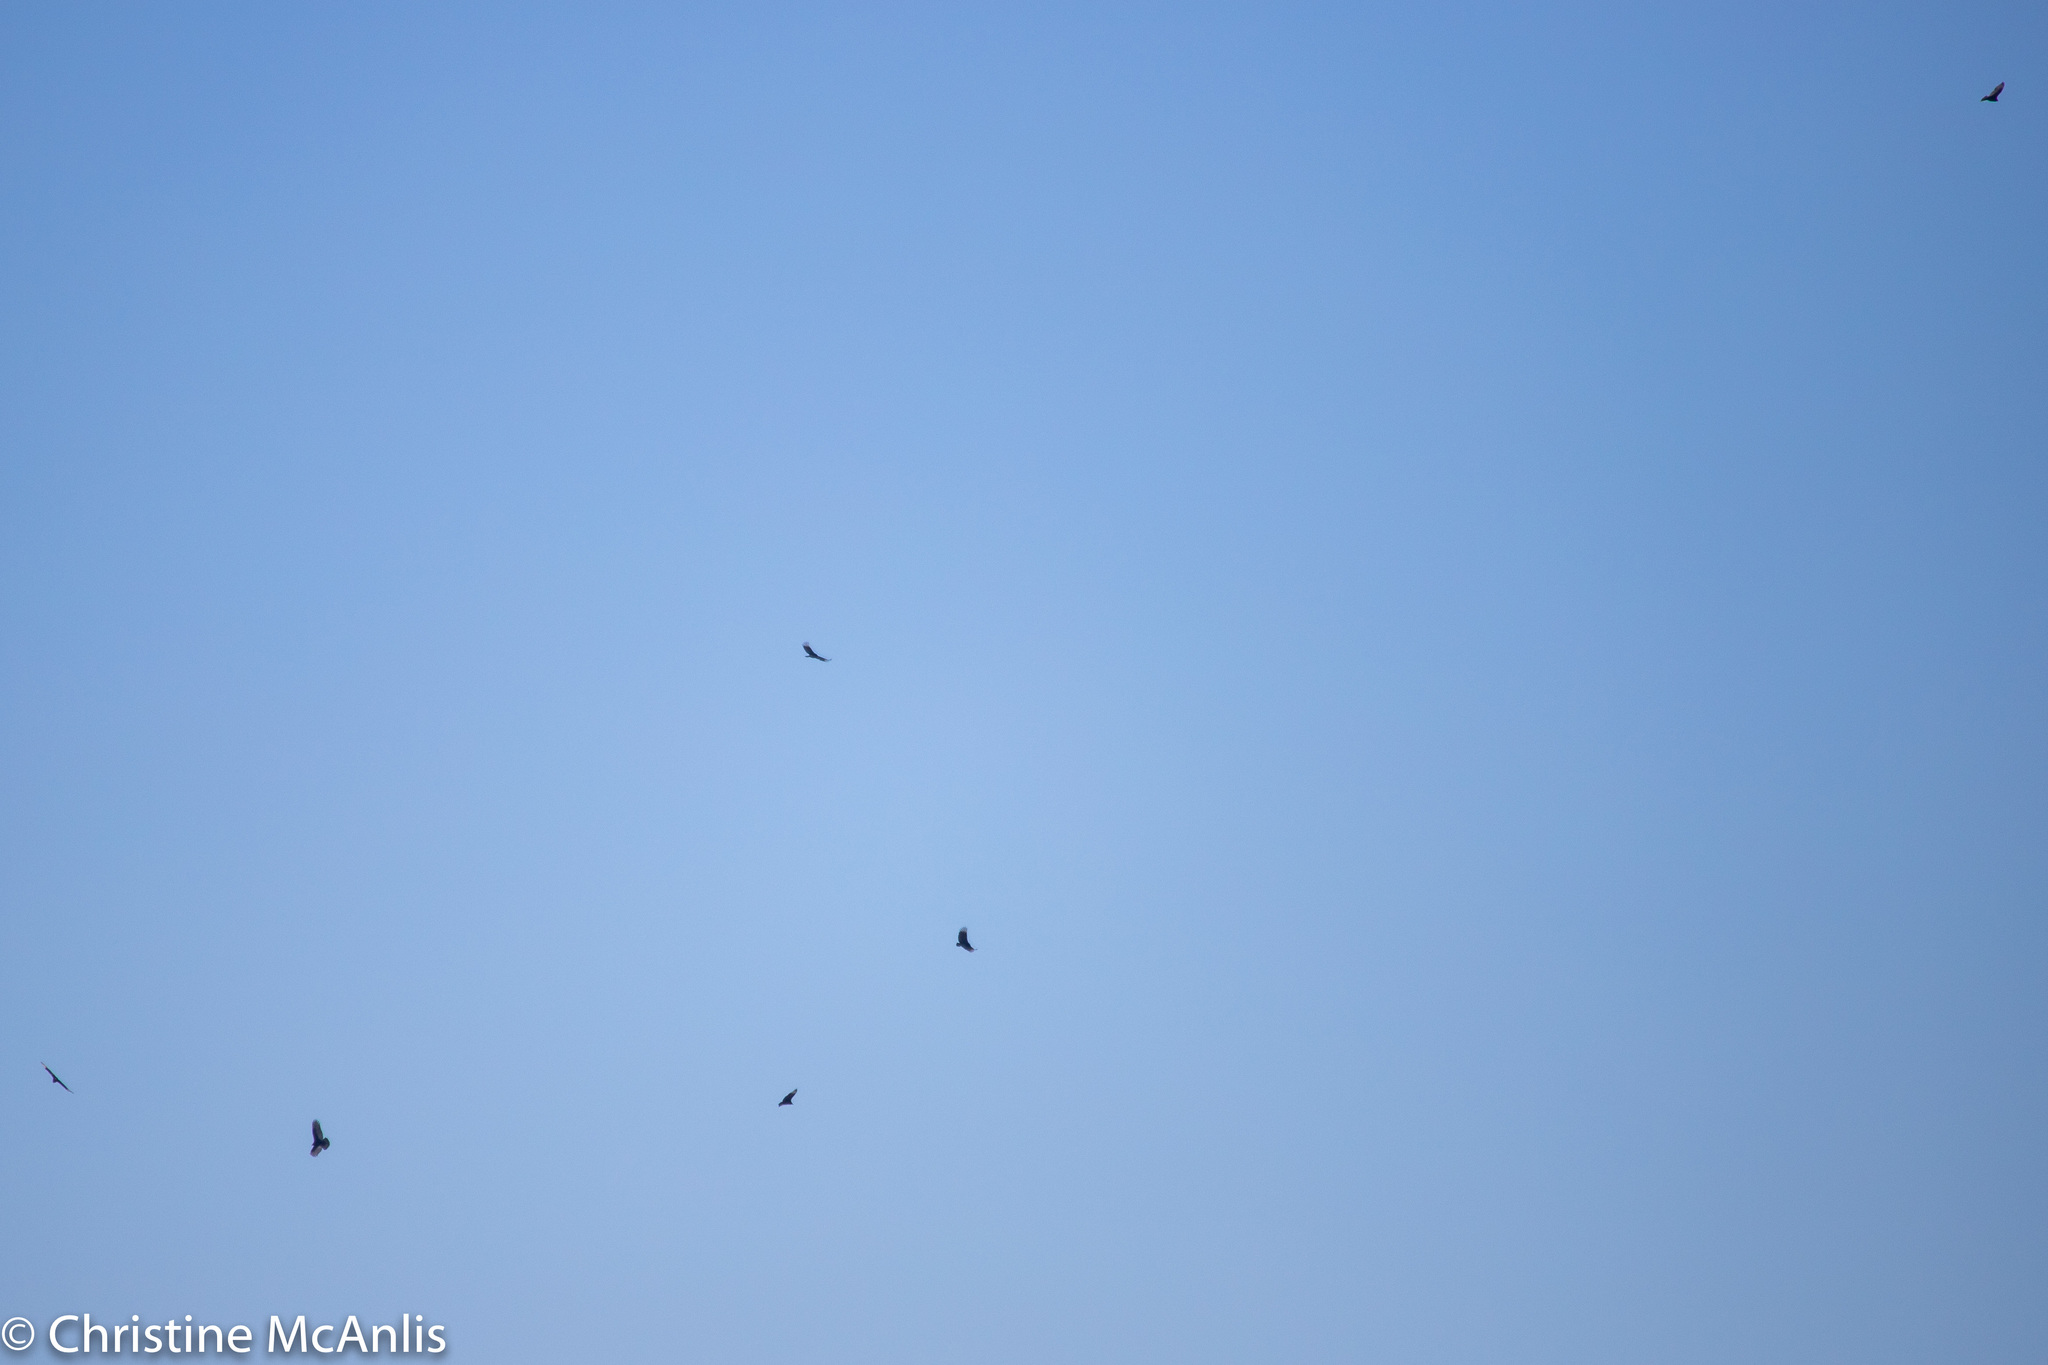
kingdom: Animalia
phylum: Chordata
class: Aves
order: Accipitriformes
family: Cathartidae
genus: Cathartes
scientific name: Cathartes aura
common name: Turkey vulture
